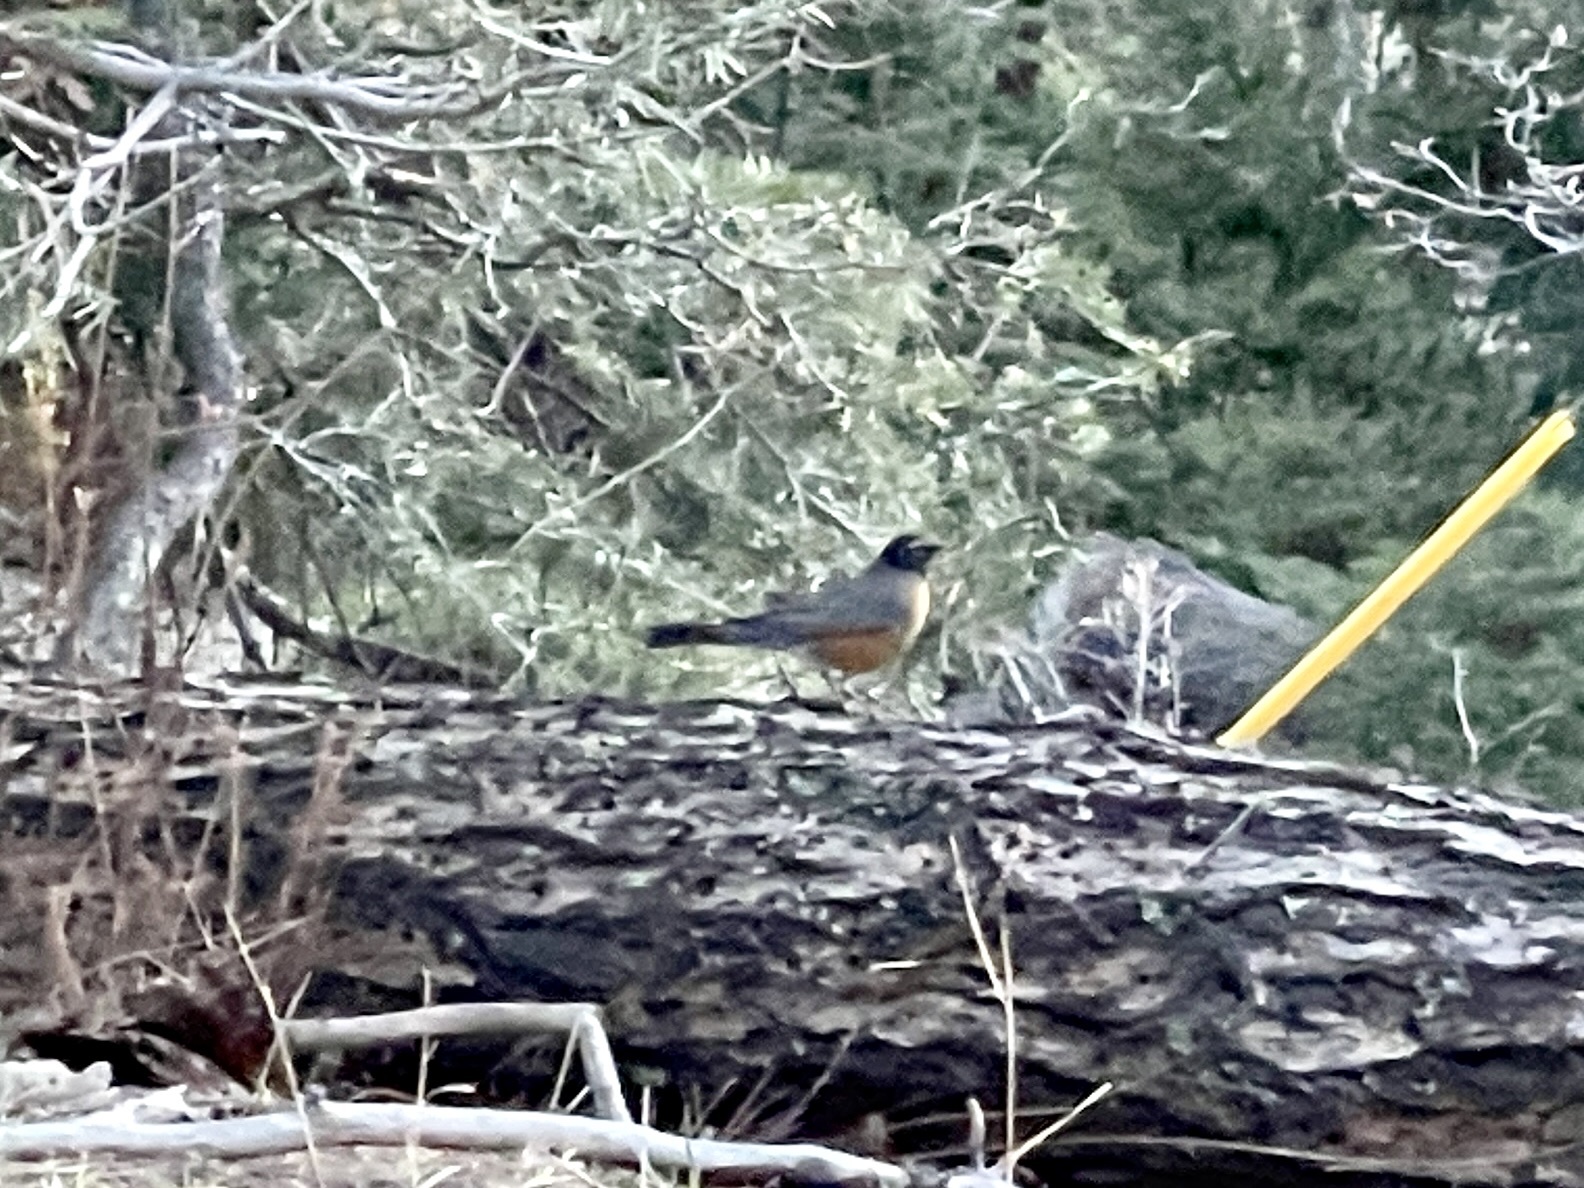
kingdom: Animalia
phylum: Chordata
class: Aves
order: Passeriformes
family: Turdidae
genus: Turdus
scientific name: Turdus migratorius
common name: American robin
